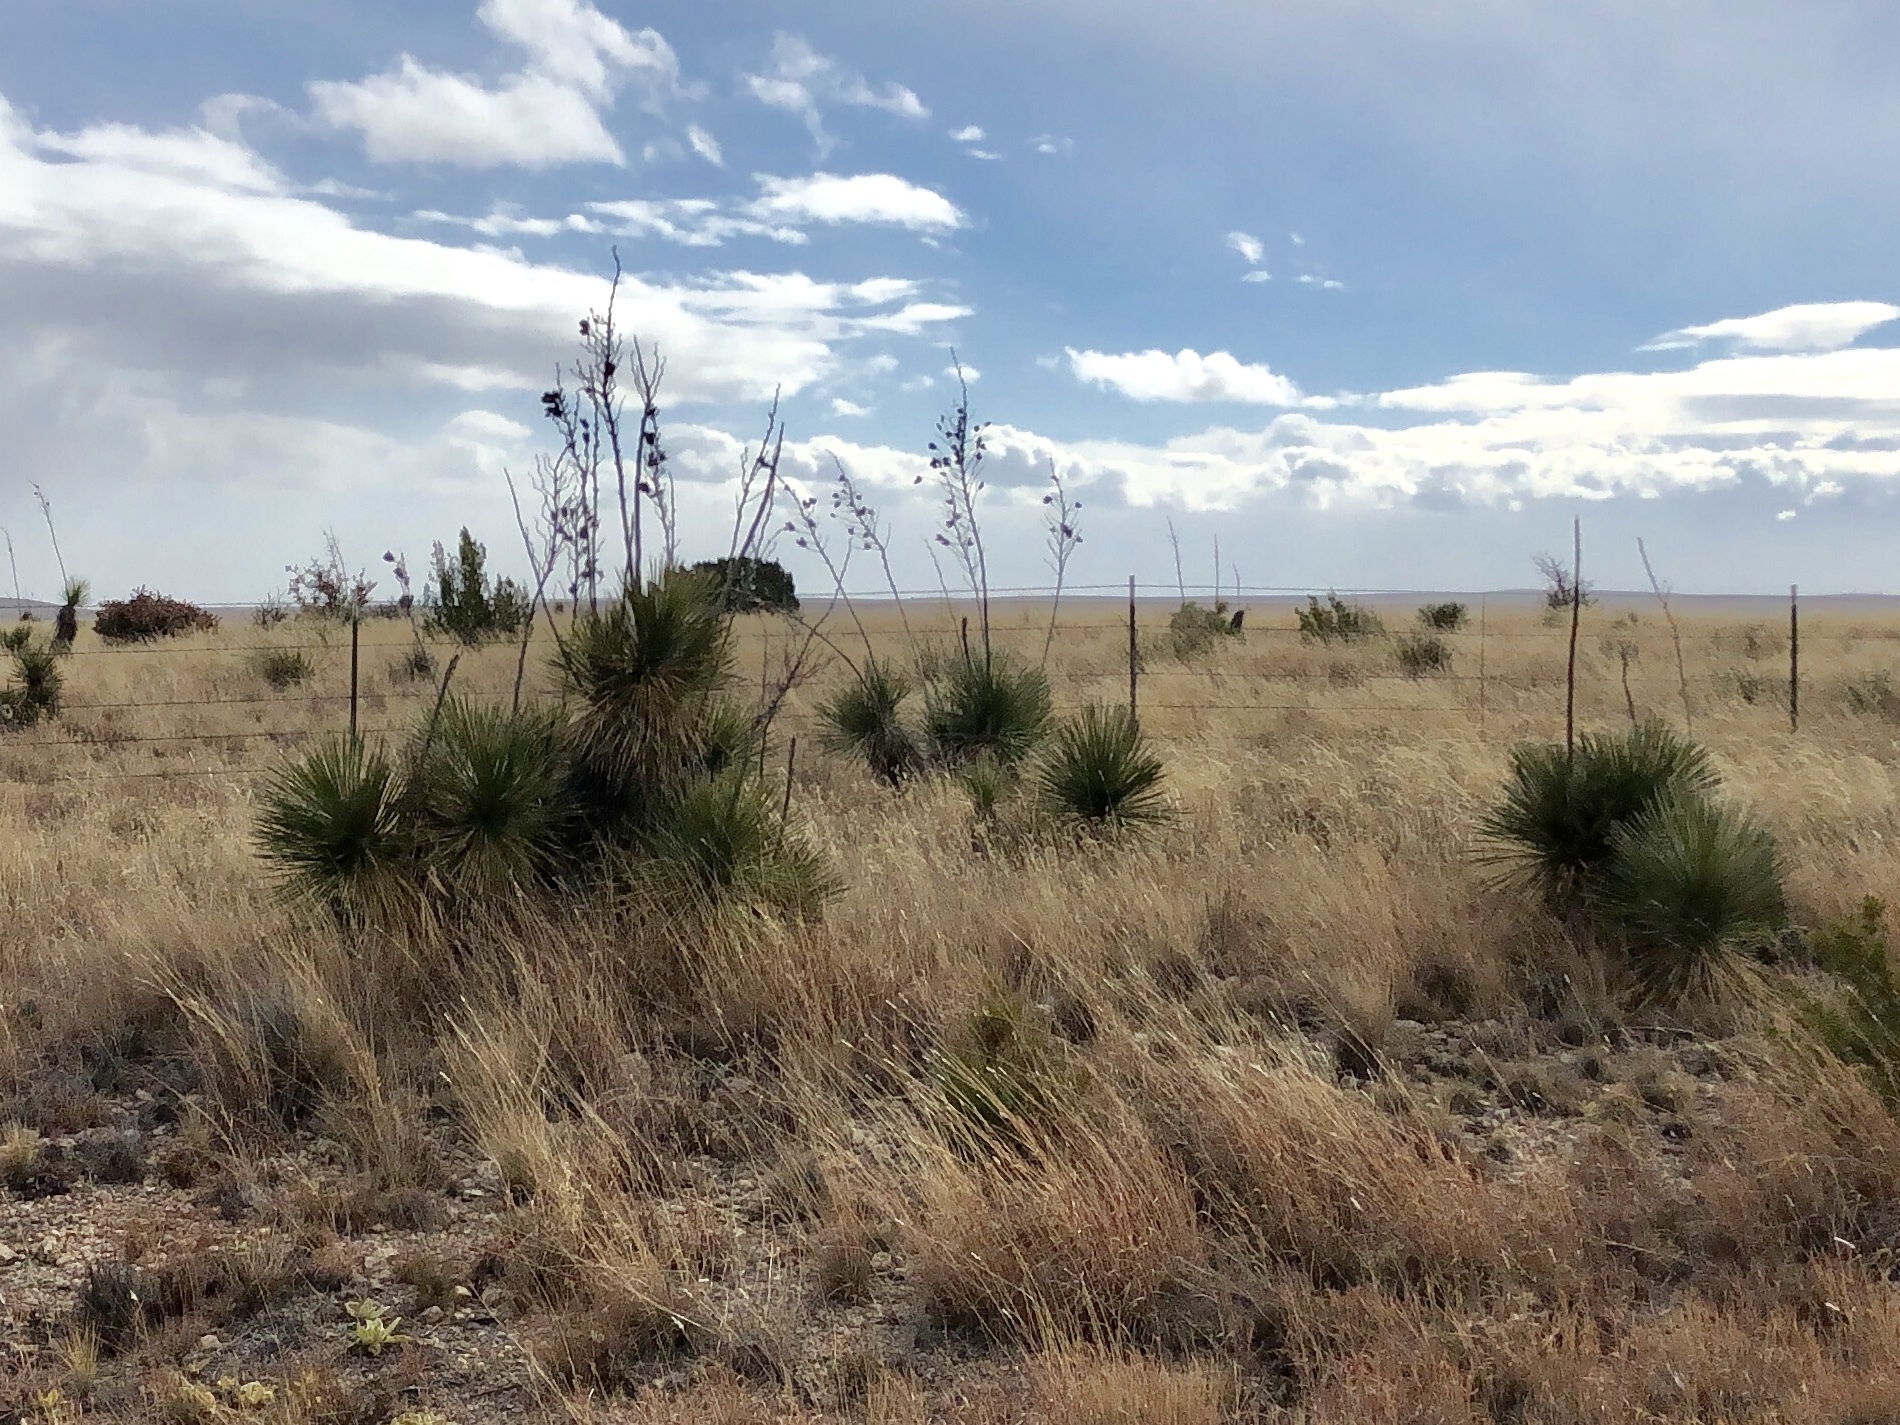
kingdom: Plantae
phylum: Tracheophyta
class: Liliopsida
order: Asparagales
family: Asparagaceae
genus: Yucca
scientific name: Yucca elata
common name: Palmella
